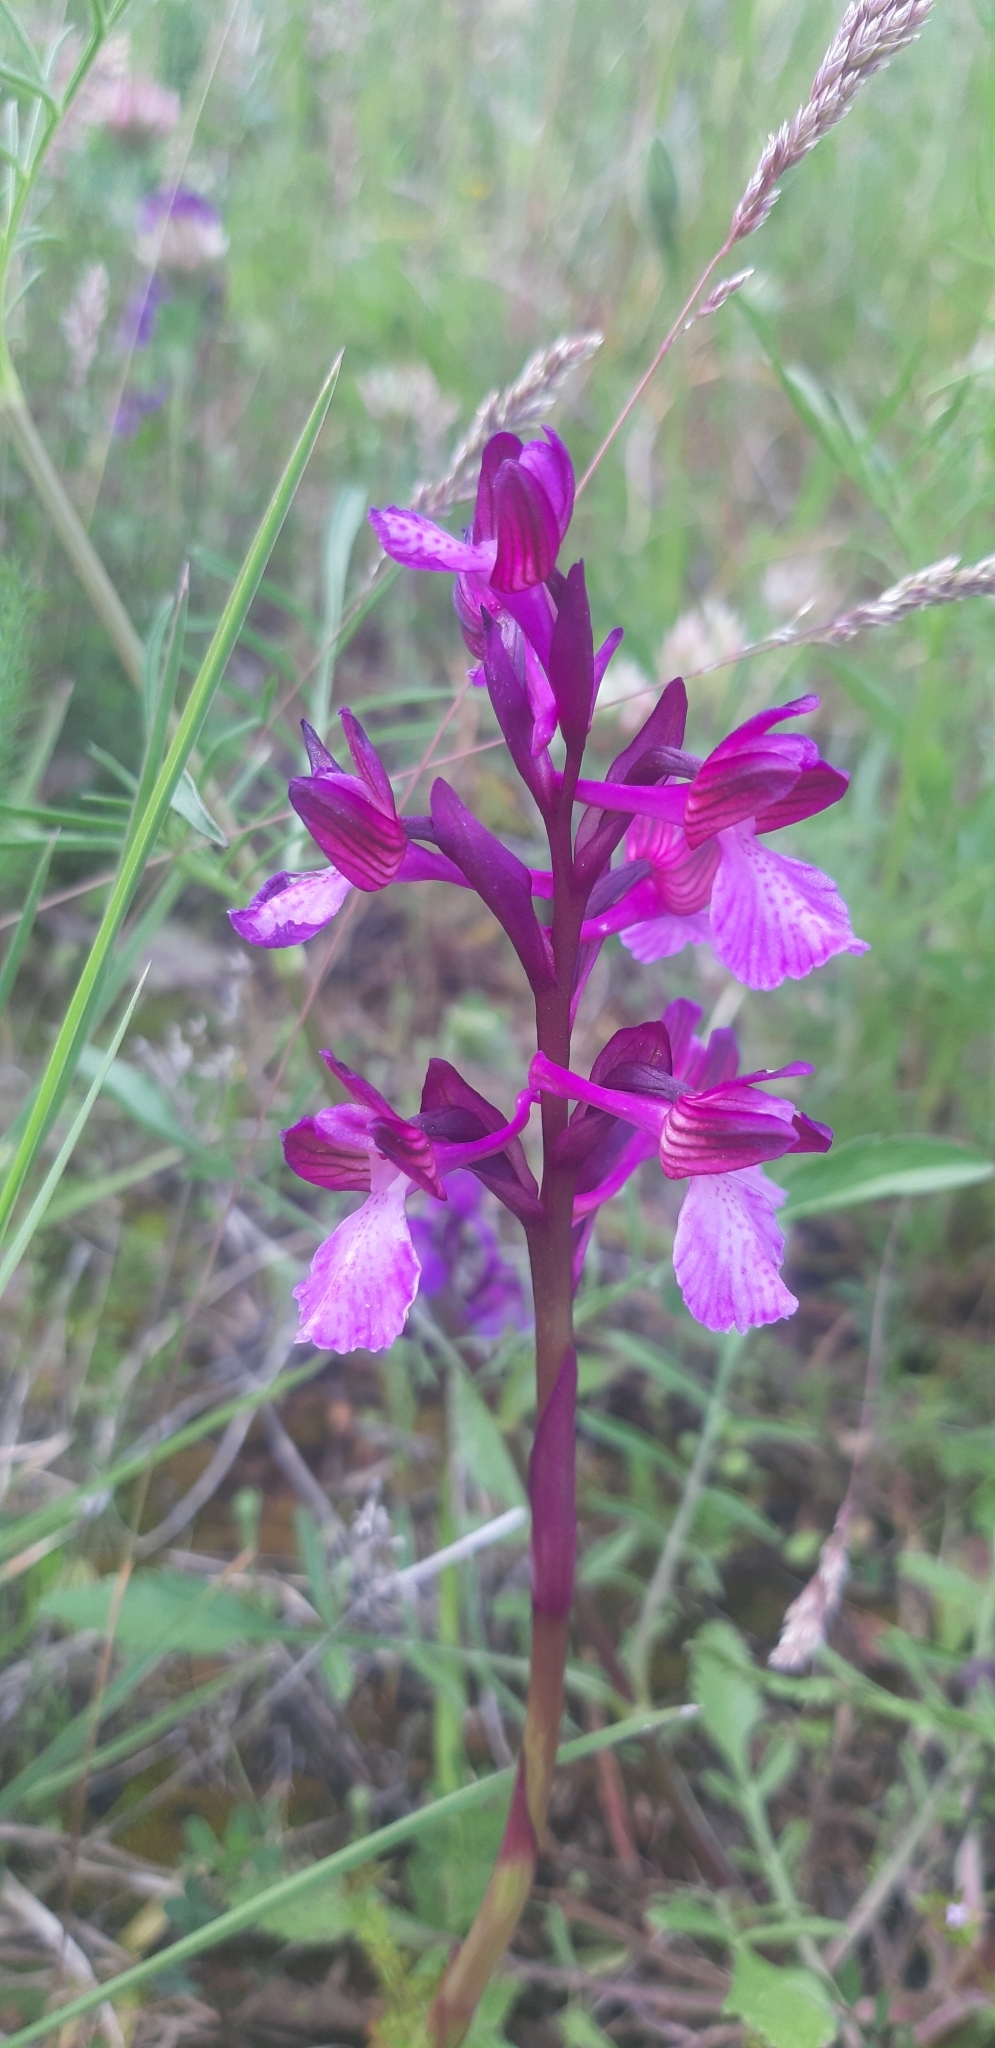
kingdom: Plantae
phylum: Tracheophyta
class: Liliopsida
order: Asparagales
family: Orchidaceae
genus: Anacamptis
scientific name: Anacamptis gennarii
